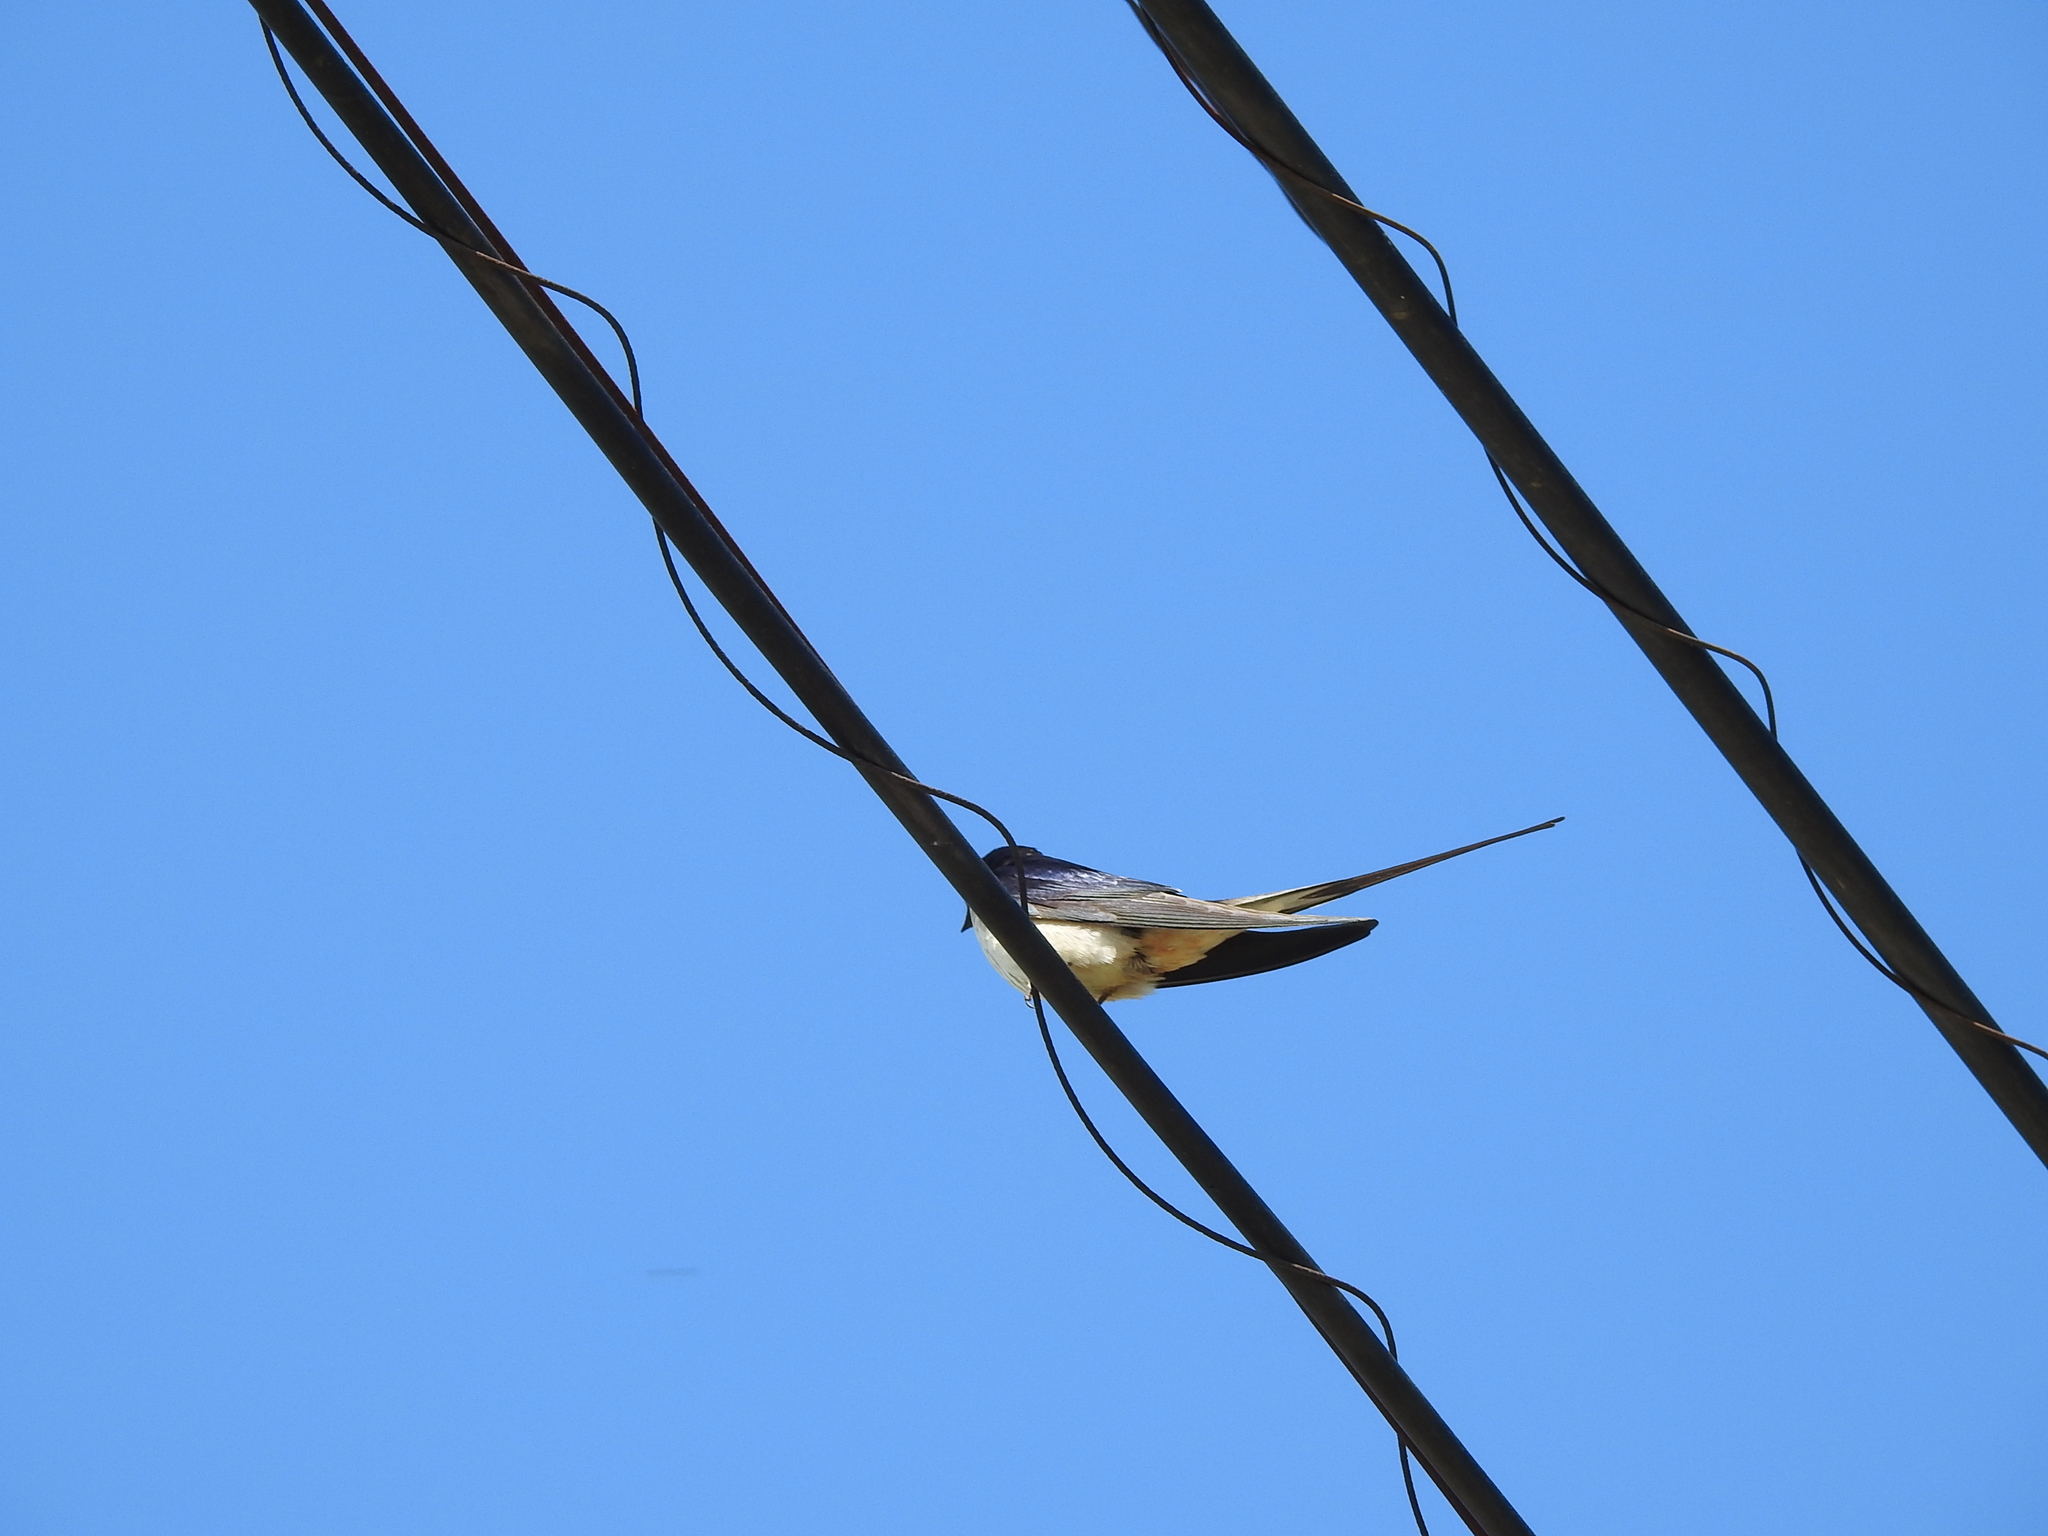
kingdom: Animalia
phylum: Chordata
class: Aves
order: Passeriformes
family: Hirundinidae
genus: Hirundo
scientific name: Hirundo rustica
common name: Barn swallow
